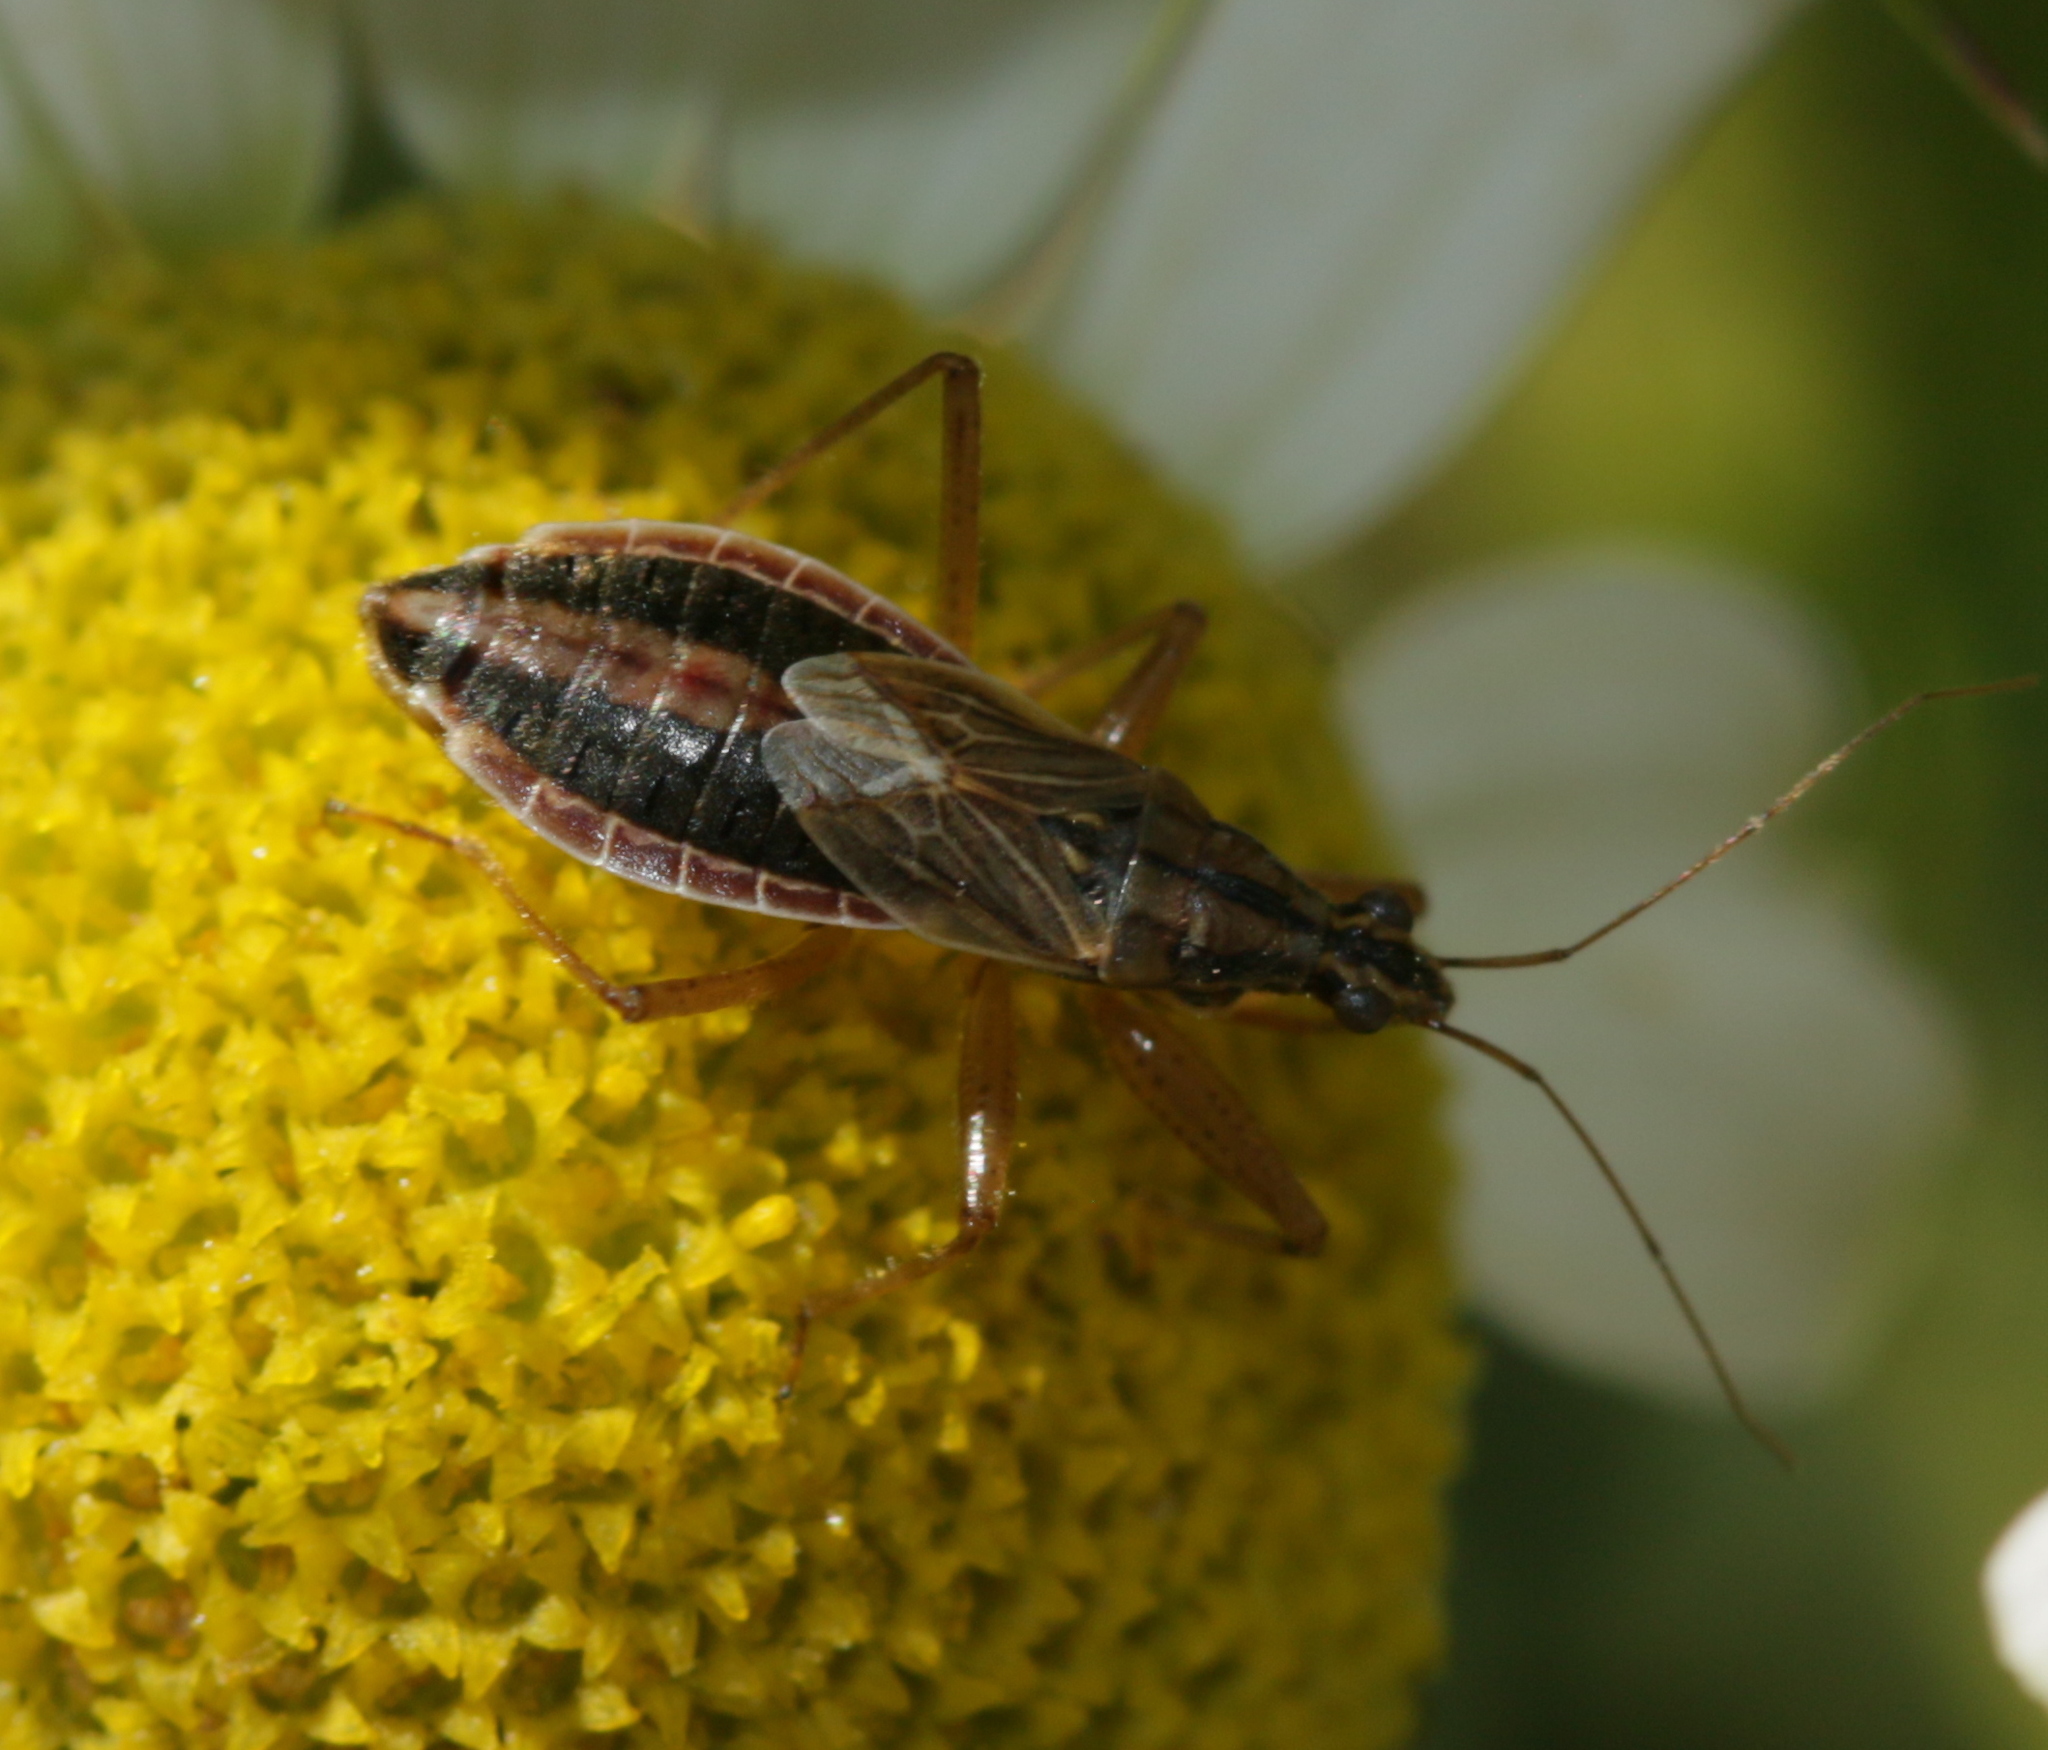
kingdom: Animalia
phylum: Arthropoda
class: Insecta
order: Hemiptera
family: Nabidae
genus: Nabis
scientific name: Nabis flavomarginatus
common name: Broad damselbug
